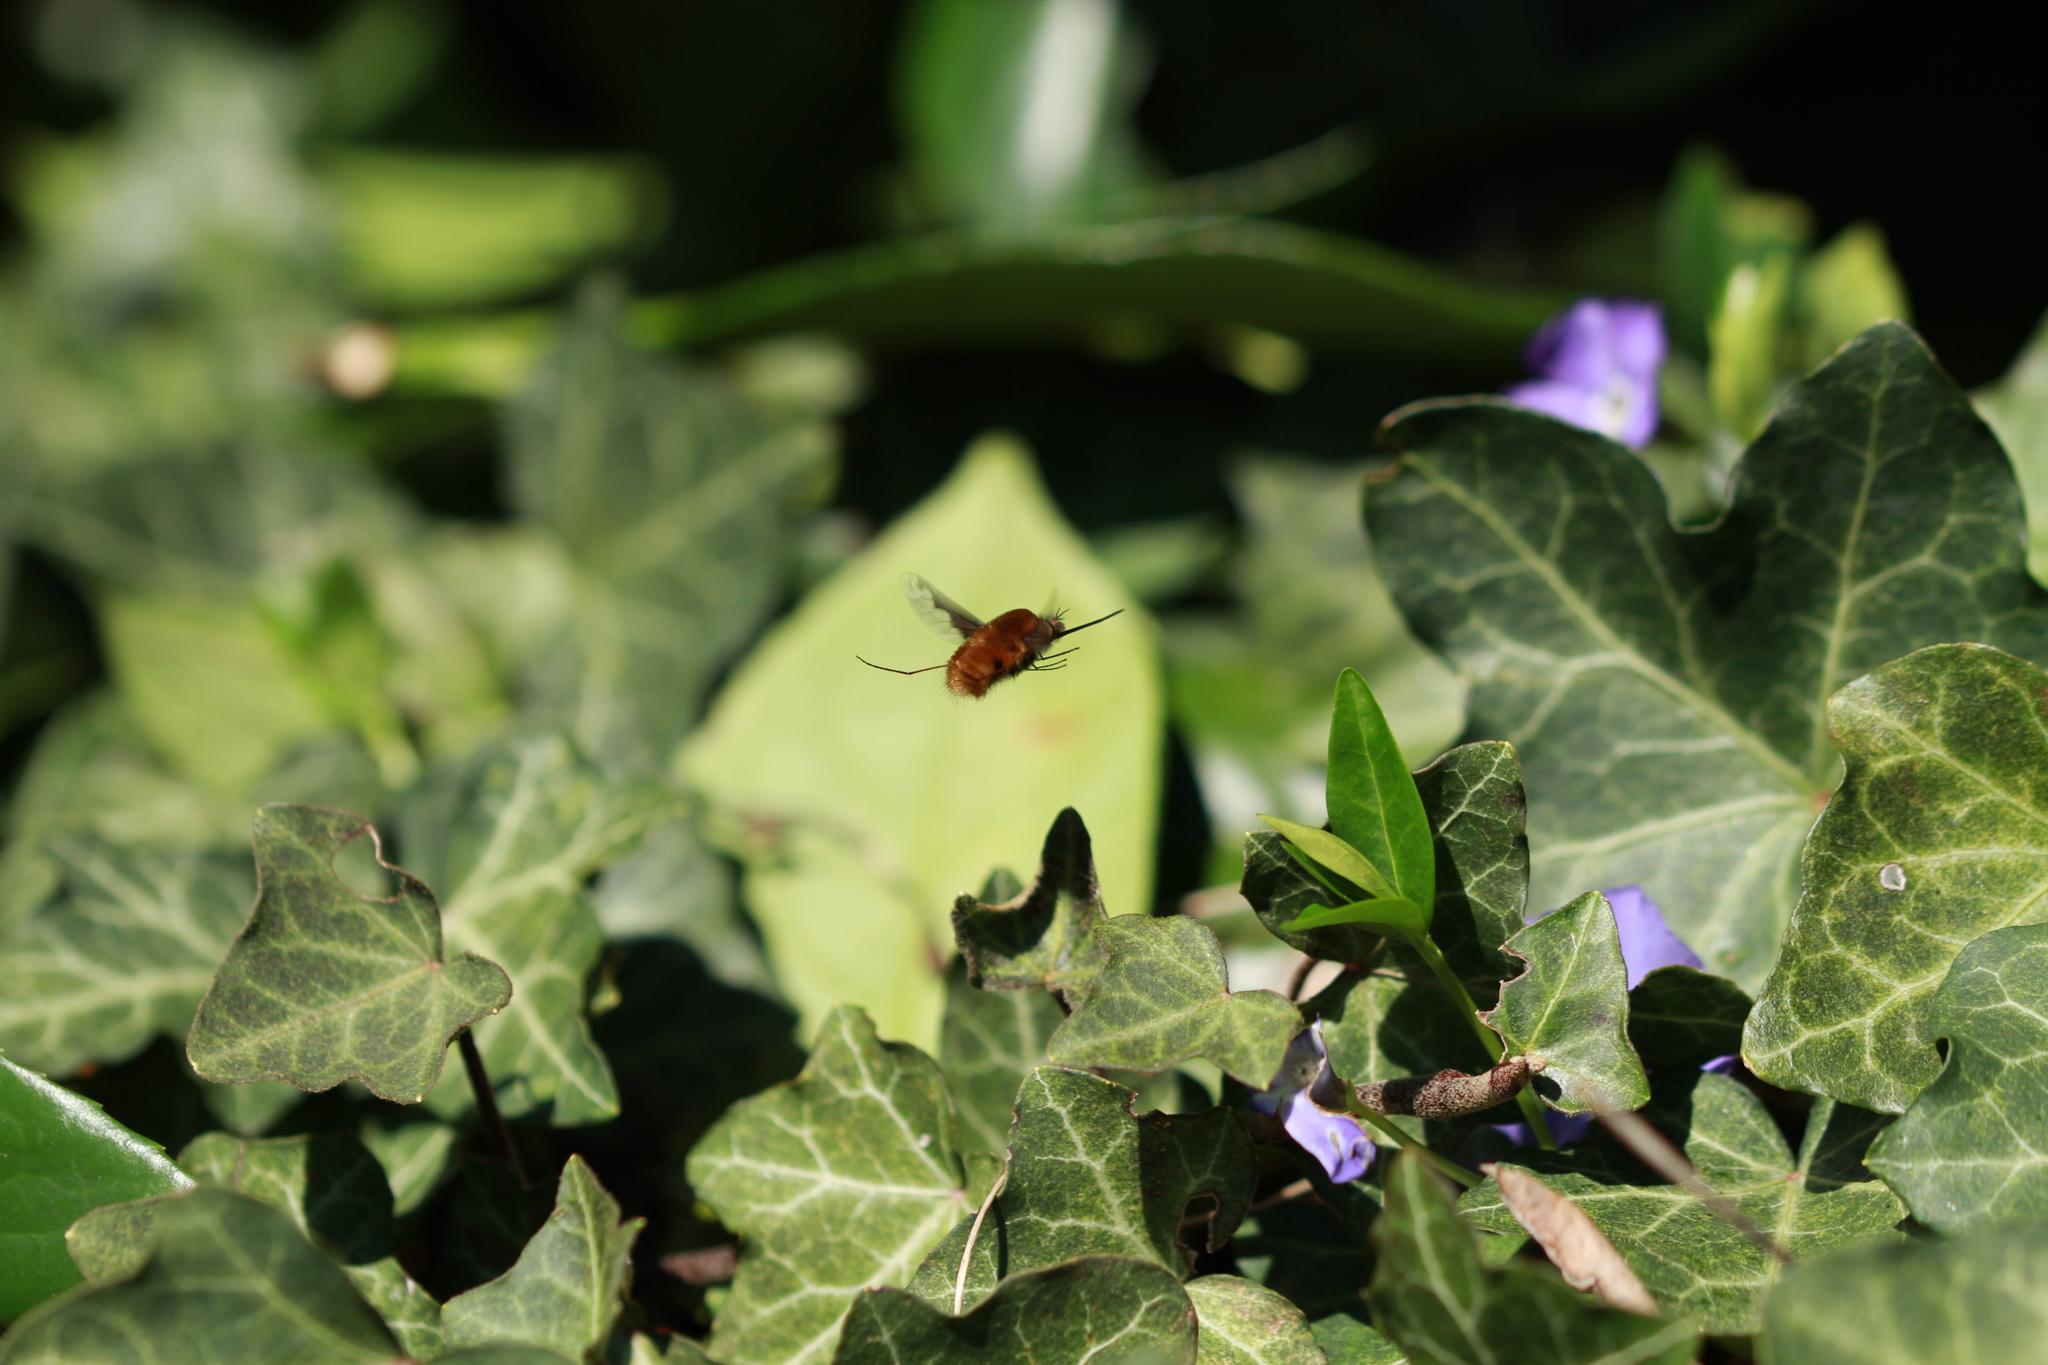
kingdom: Animalia
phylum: Arthropoda
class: Insecta
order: Diptera
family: Bombyliidae
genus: Bombylius
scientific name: Bombylius major
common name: Bee fly
